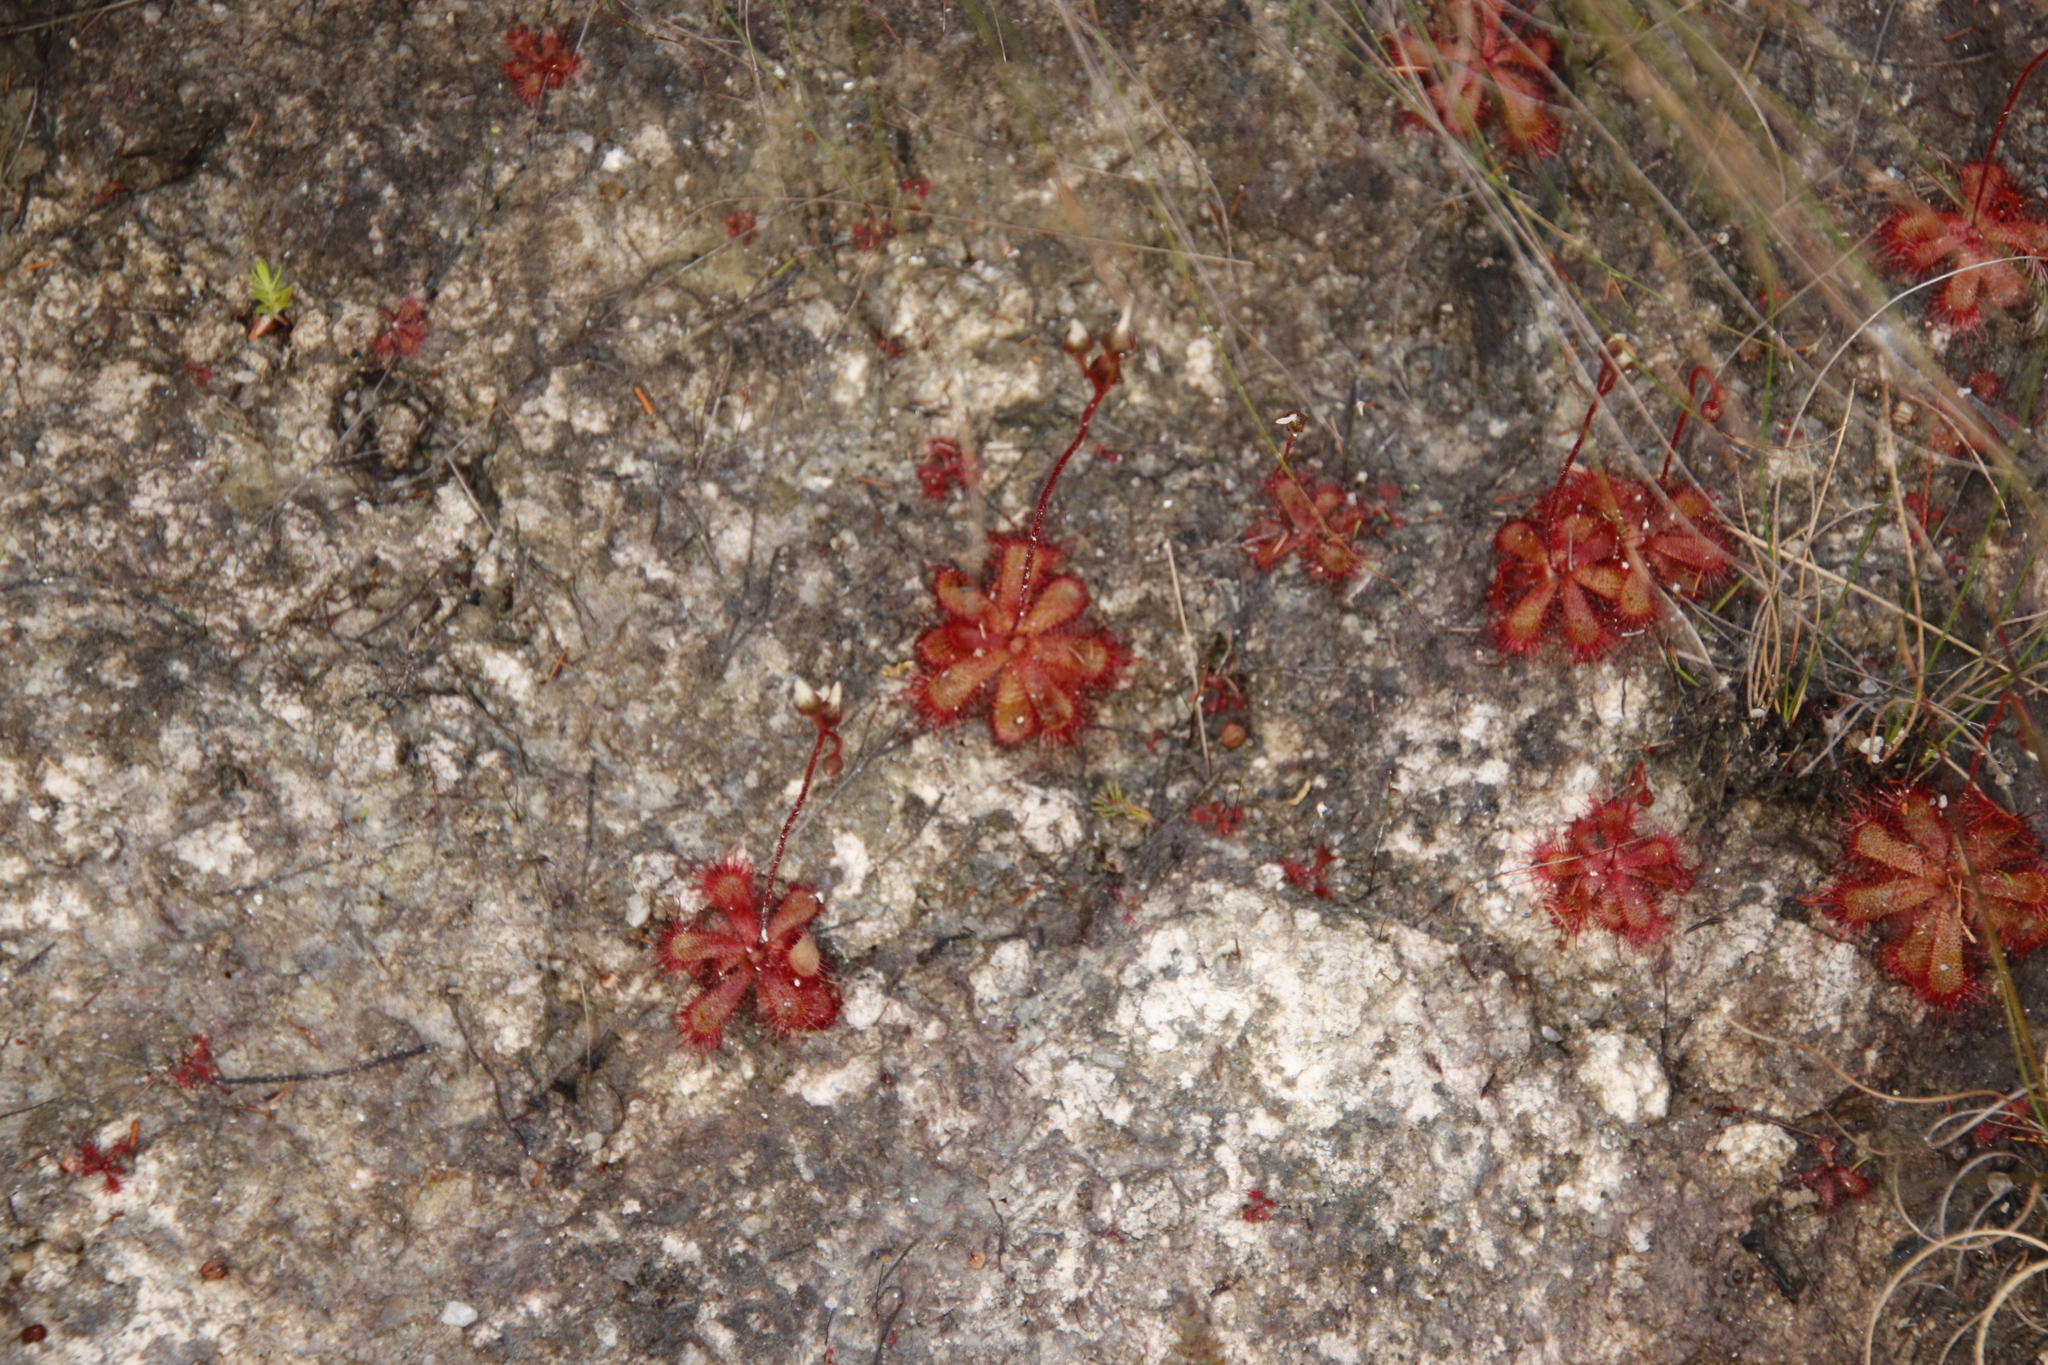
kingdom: Plantae
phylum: Tracheophyta
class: Magnoliopsida
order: Caryophyllales
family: Droseraceae
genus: Drosera
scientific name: Drosera trinervia
